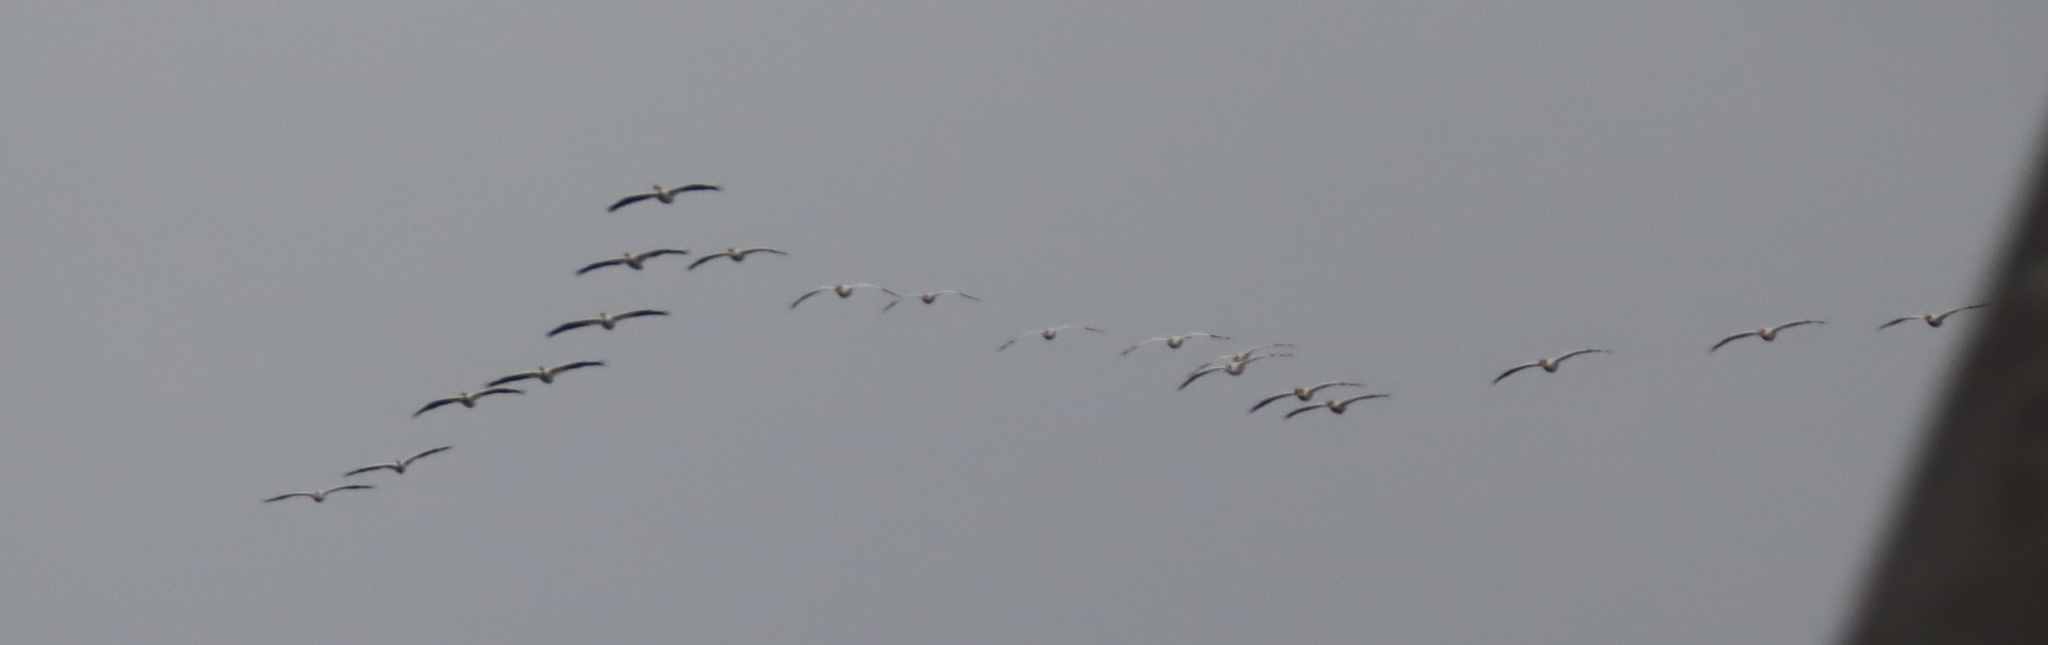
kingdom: Animalia
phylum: Chordata
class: Aves
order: Pelecaniformes
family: Pelecanidae
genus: Pelecanus
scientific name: Pelecanus erythrorhynchos
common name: American white pelican
